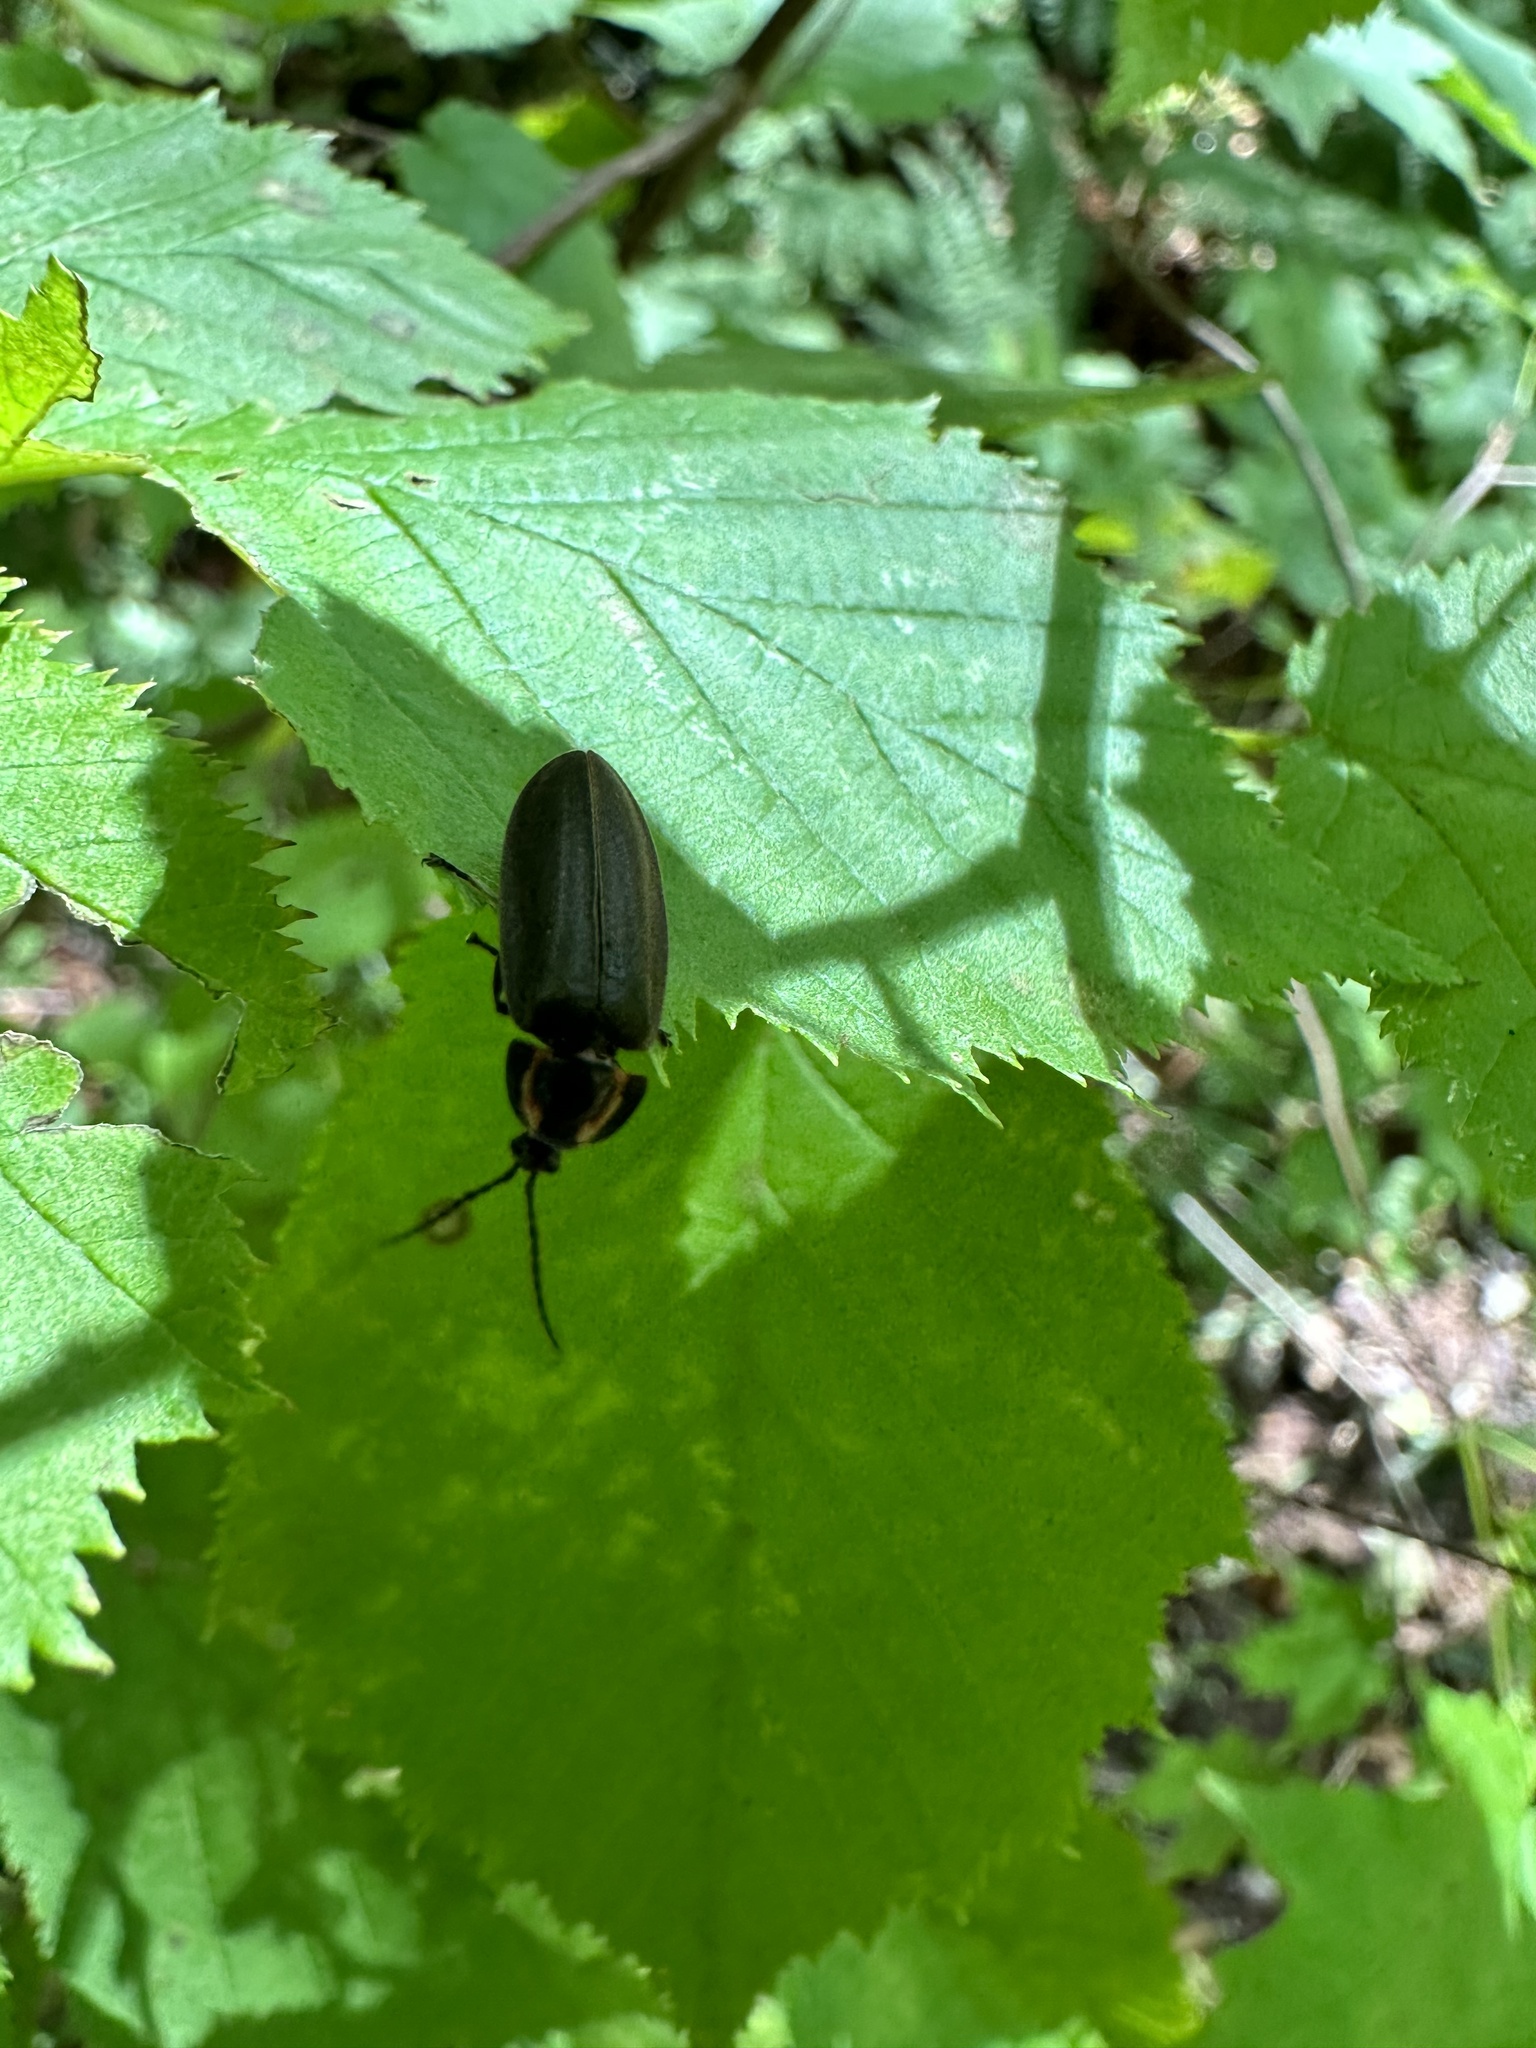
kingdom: Animalia
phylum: Arthropoda
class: Insecta
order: Coleoptera
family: Lampyridae
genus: Photinus
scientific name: Photinus corrusca
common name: Winter firefly
